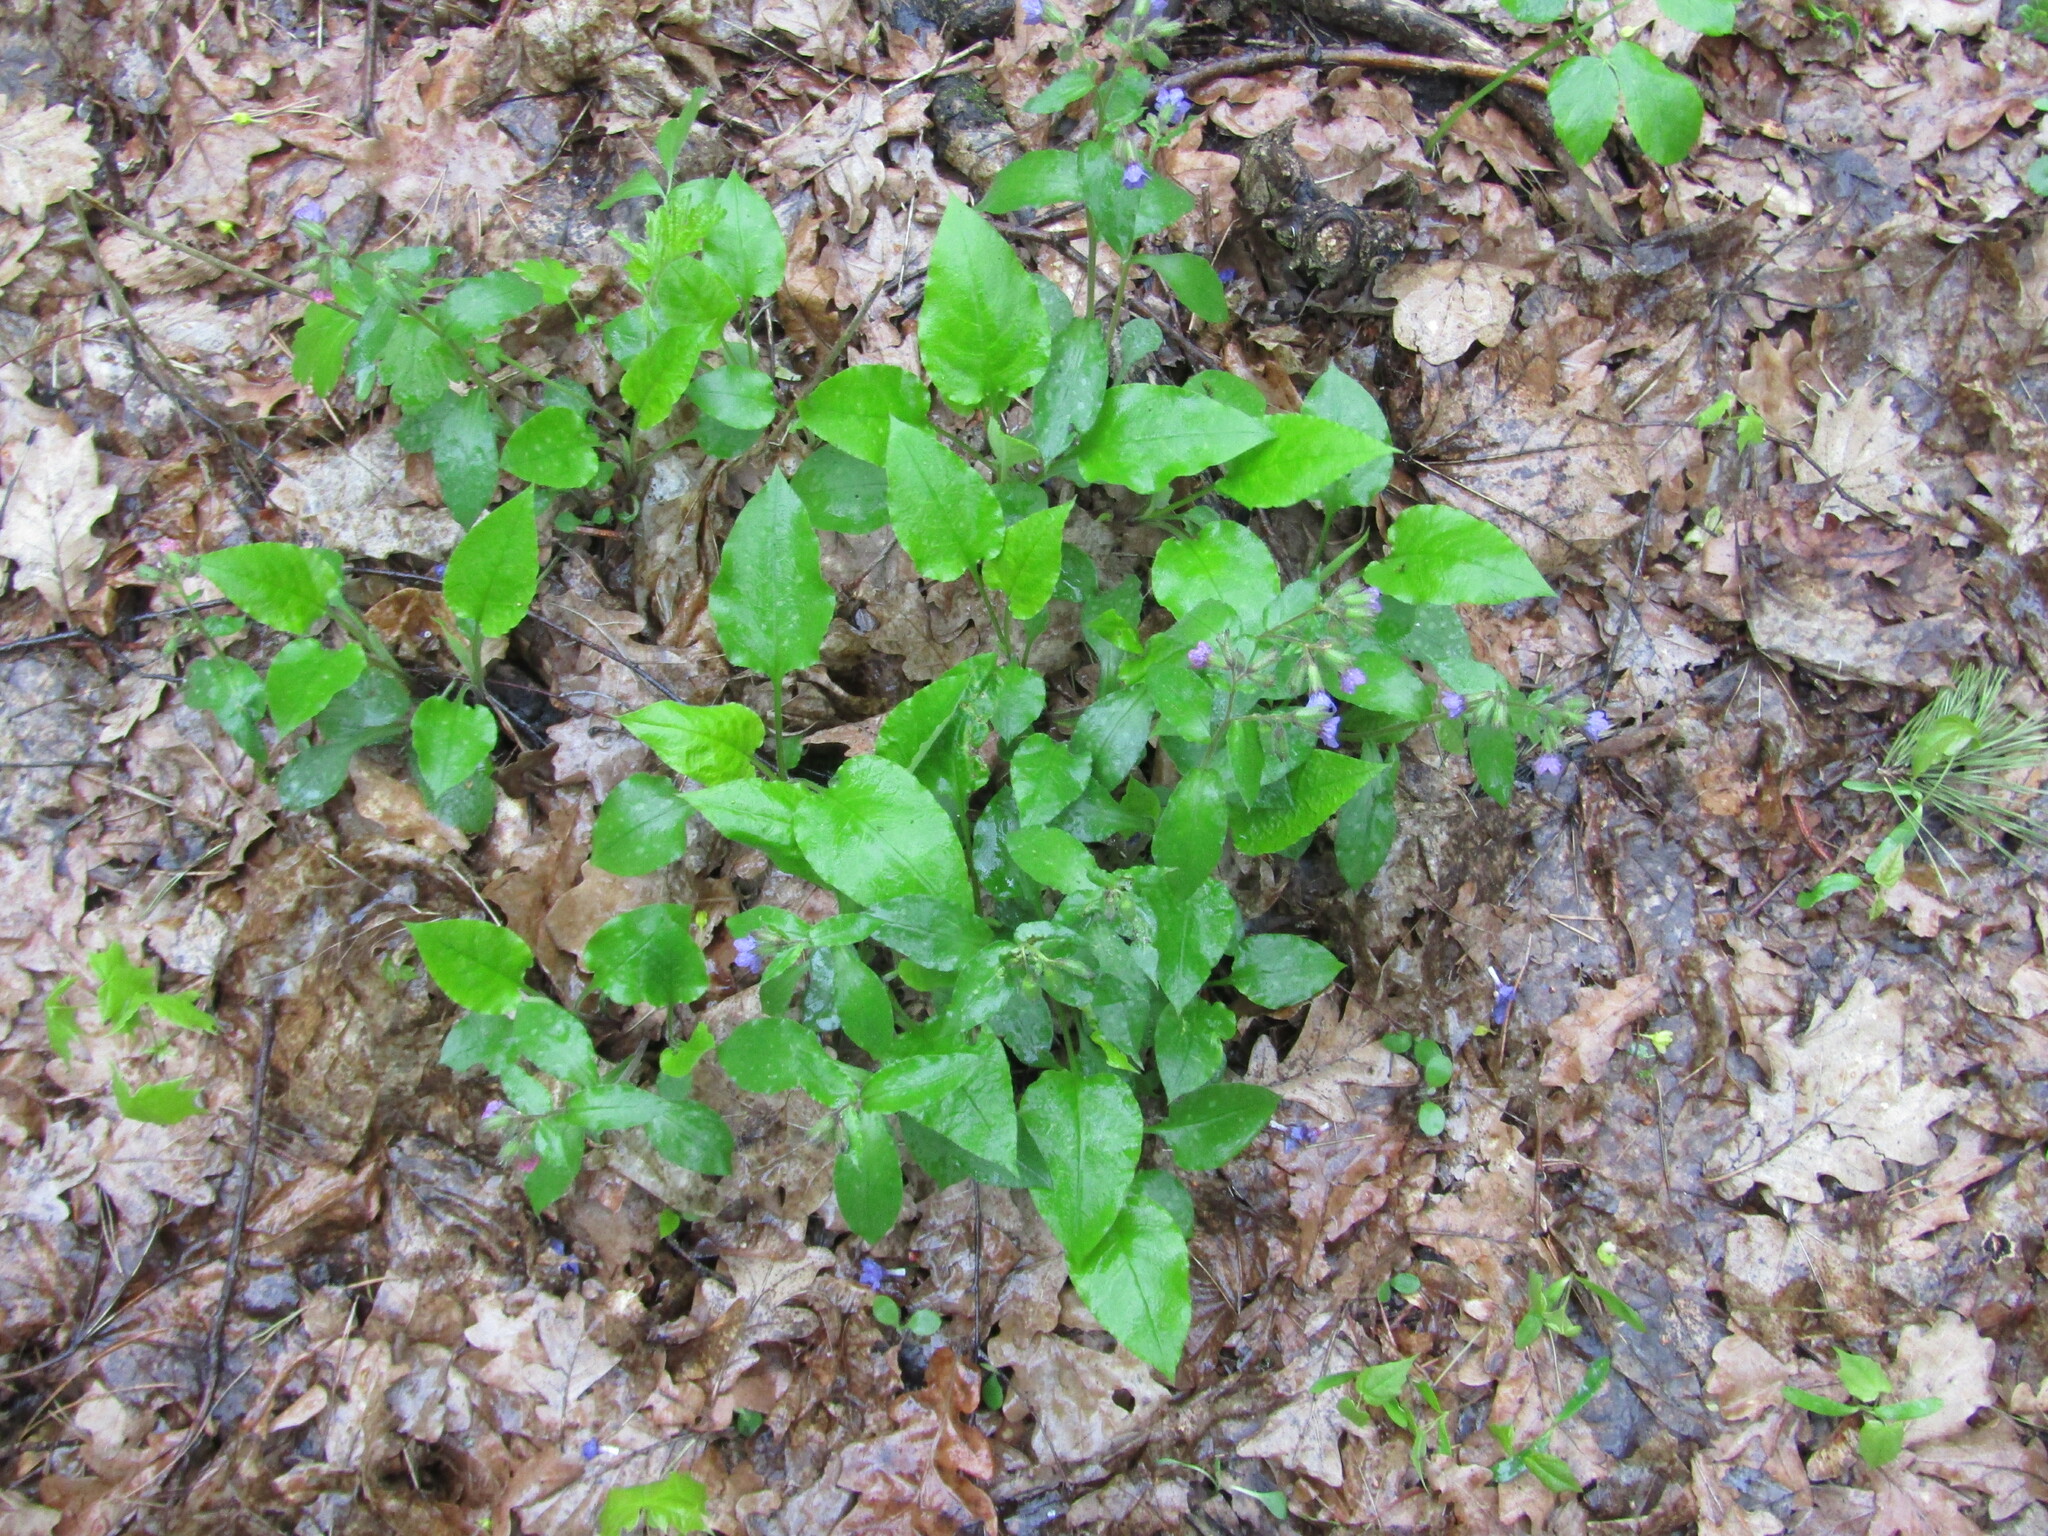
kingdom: Plantae
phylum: Tracheophyta
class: Magnoliopsida
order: Boraginales
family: Boraginaceae
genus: Pulmonaria
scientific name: Pulmonaria obscura
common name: Suffolk lungwort
